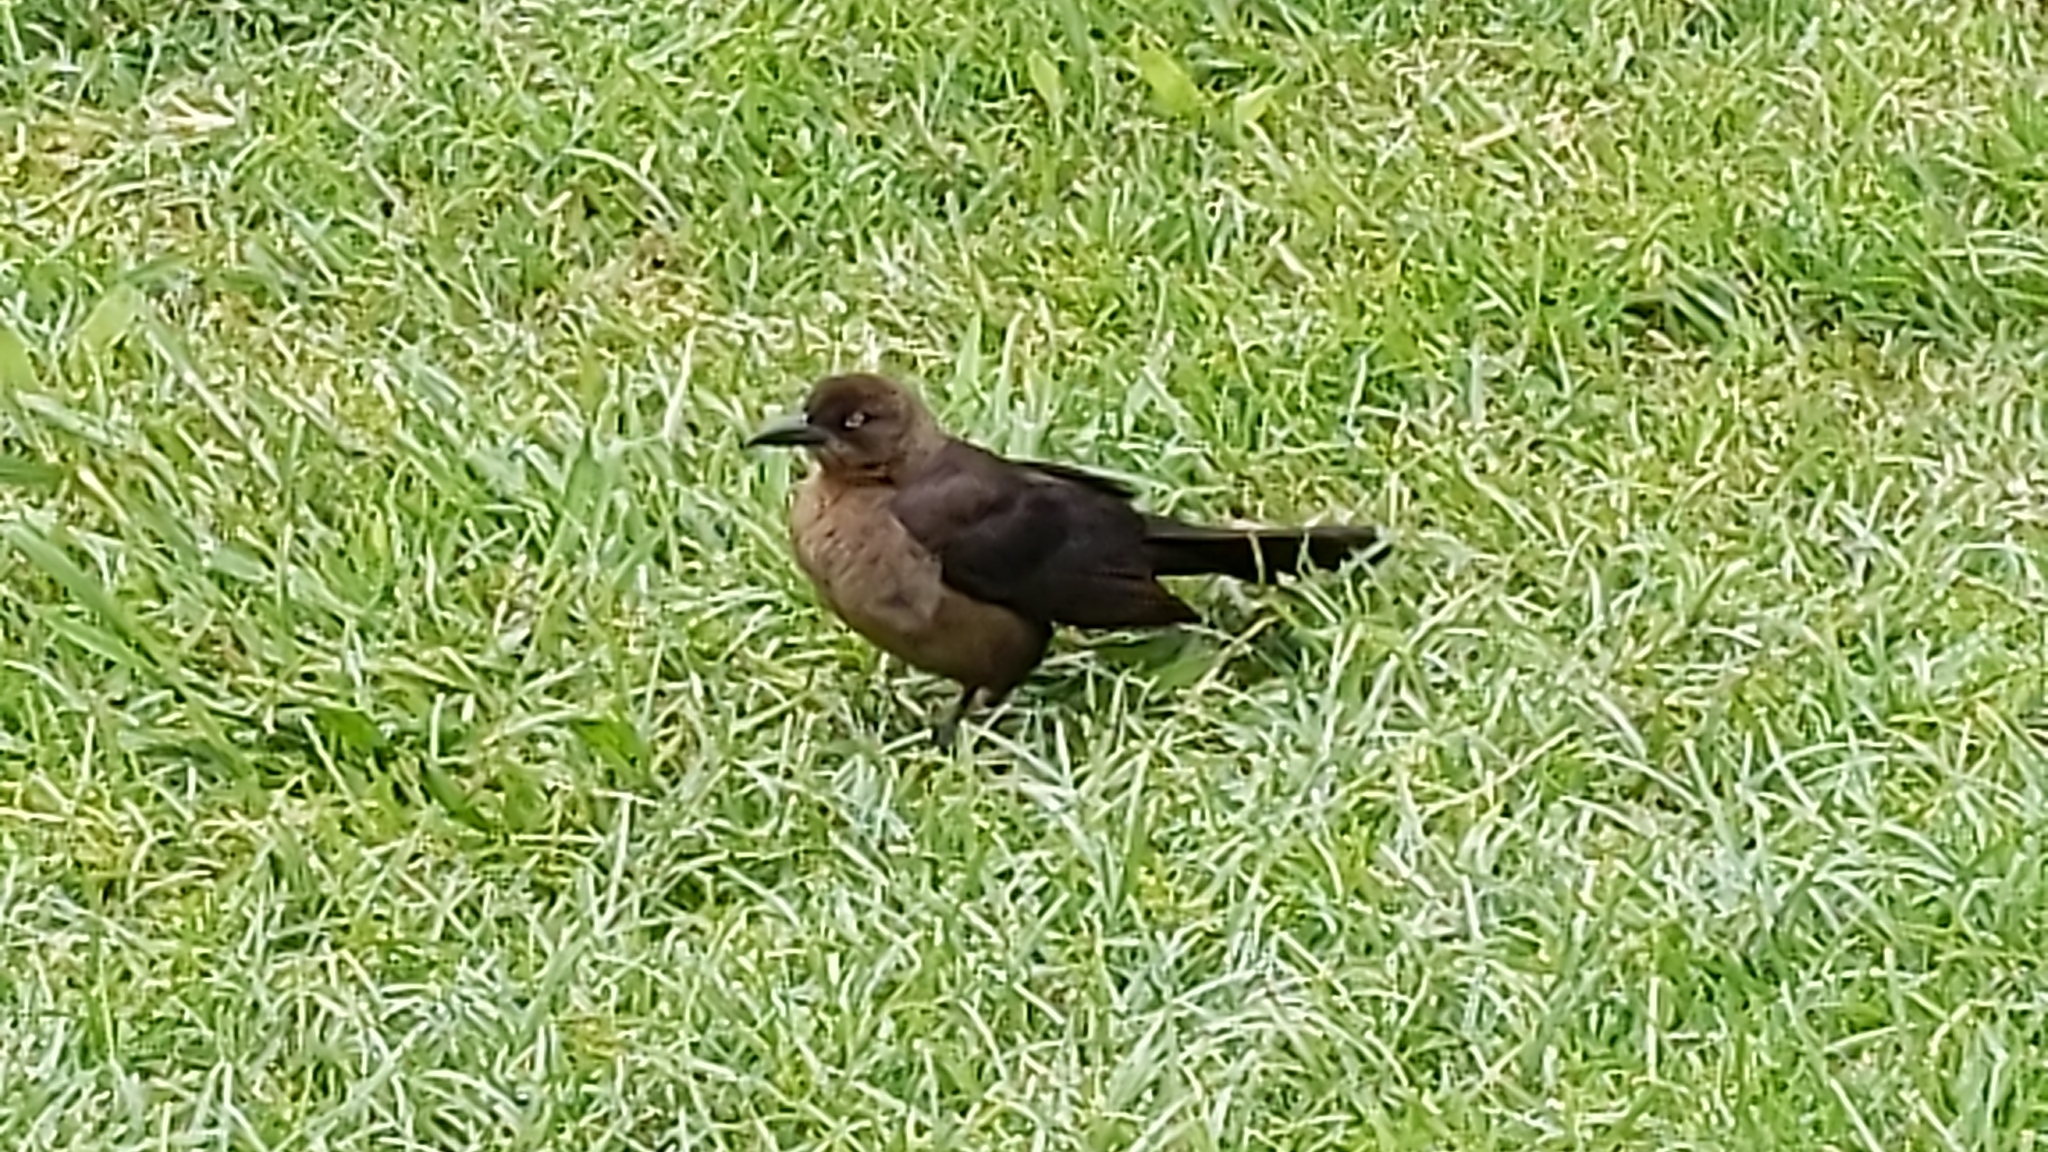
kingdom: Animalia
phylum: Chordata
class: Aves
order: Passeriformes
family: Icteridae
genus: Quiscalus
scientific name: Quiscalus mexicanus
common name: Great-tailed grackle
